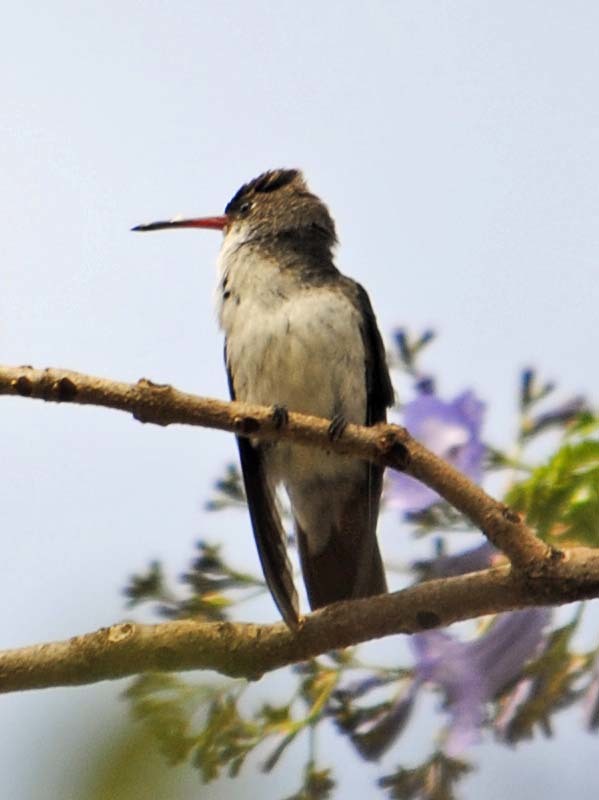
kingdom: Animalia
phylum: Chordata
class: Aves
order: Apodiformes
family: Trochilidae
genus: Leucolia
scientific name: Leucolia violiceps
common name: Violet-crowned hummingbird
